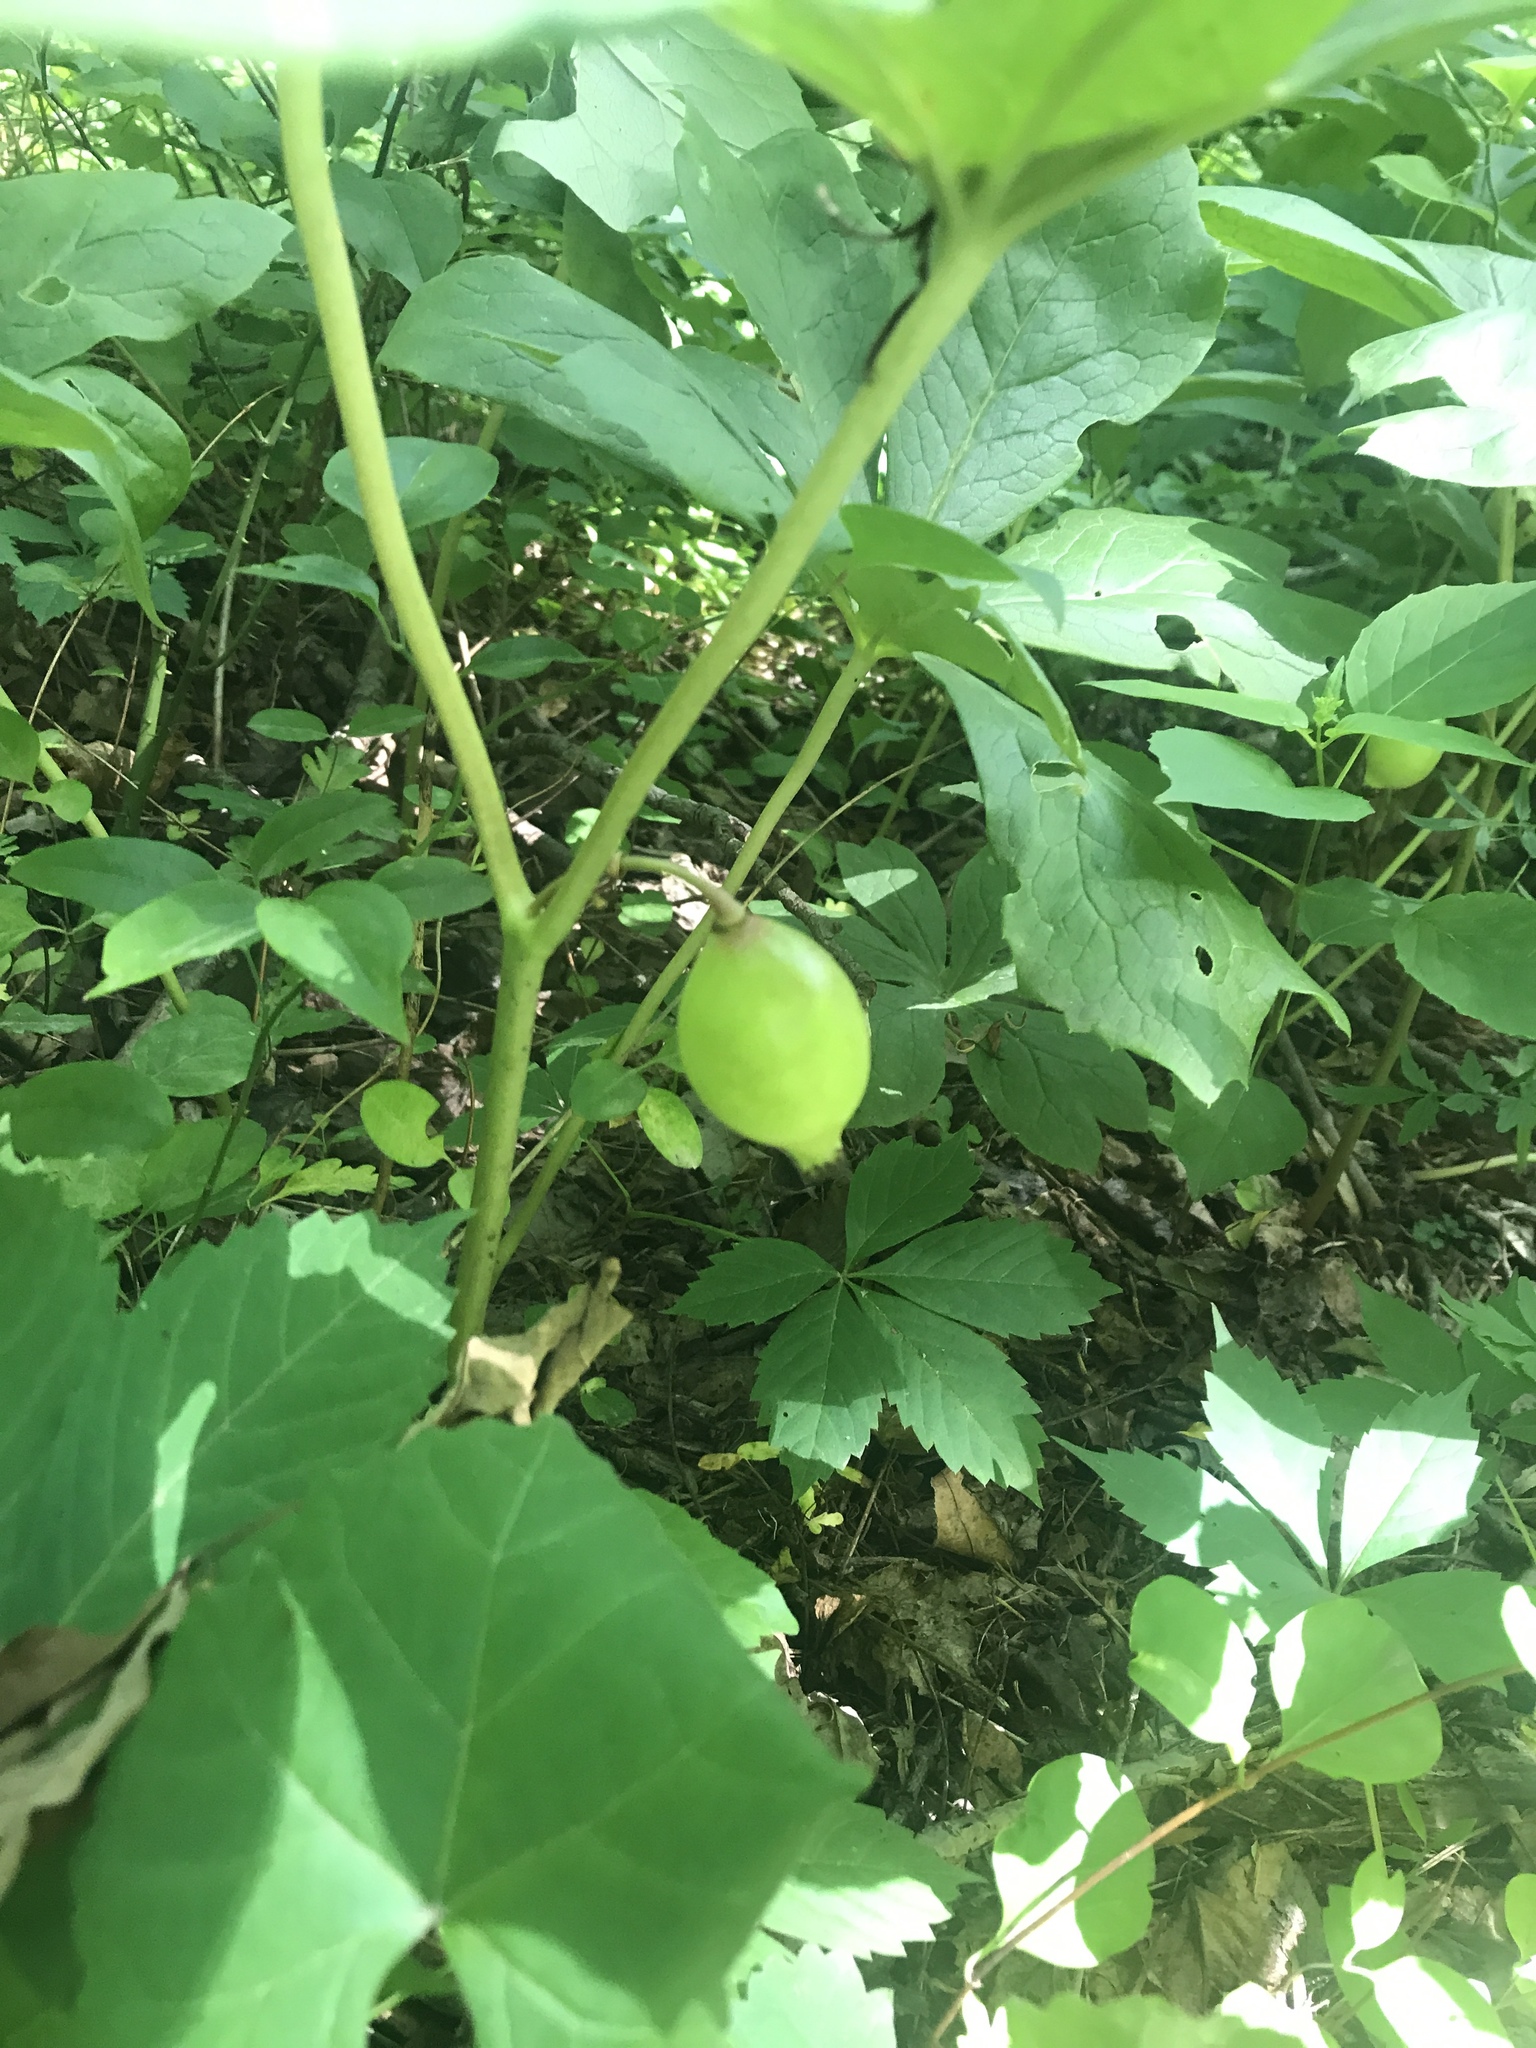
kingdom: Plantae
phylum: Tracheophyta
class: Magnoliopsida
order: Ranunculales
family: Berberidaceae
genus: Podophyllum
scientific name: Podophyllum peltatum
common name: Wild mandrake
